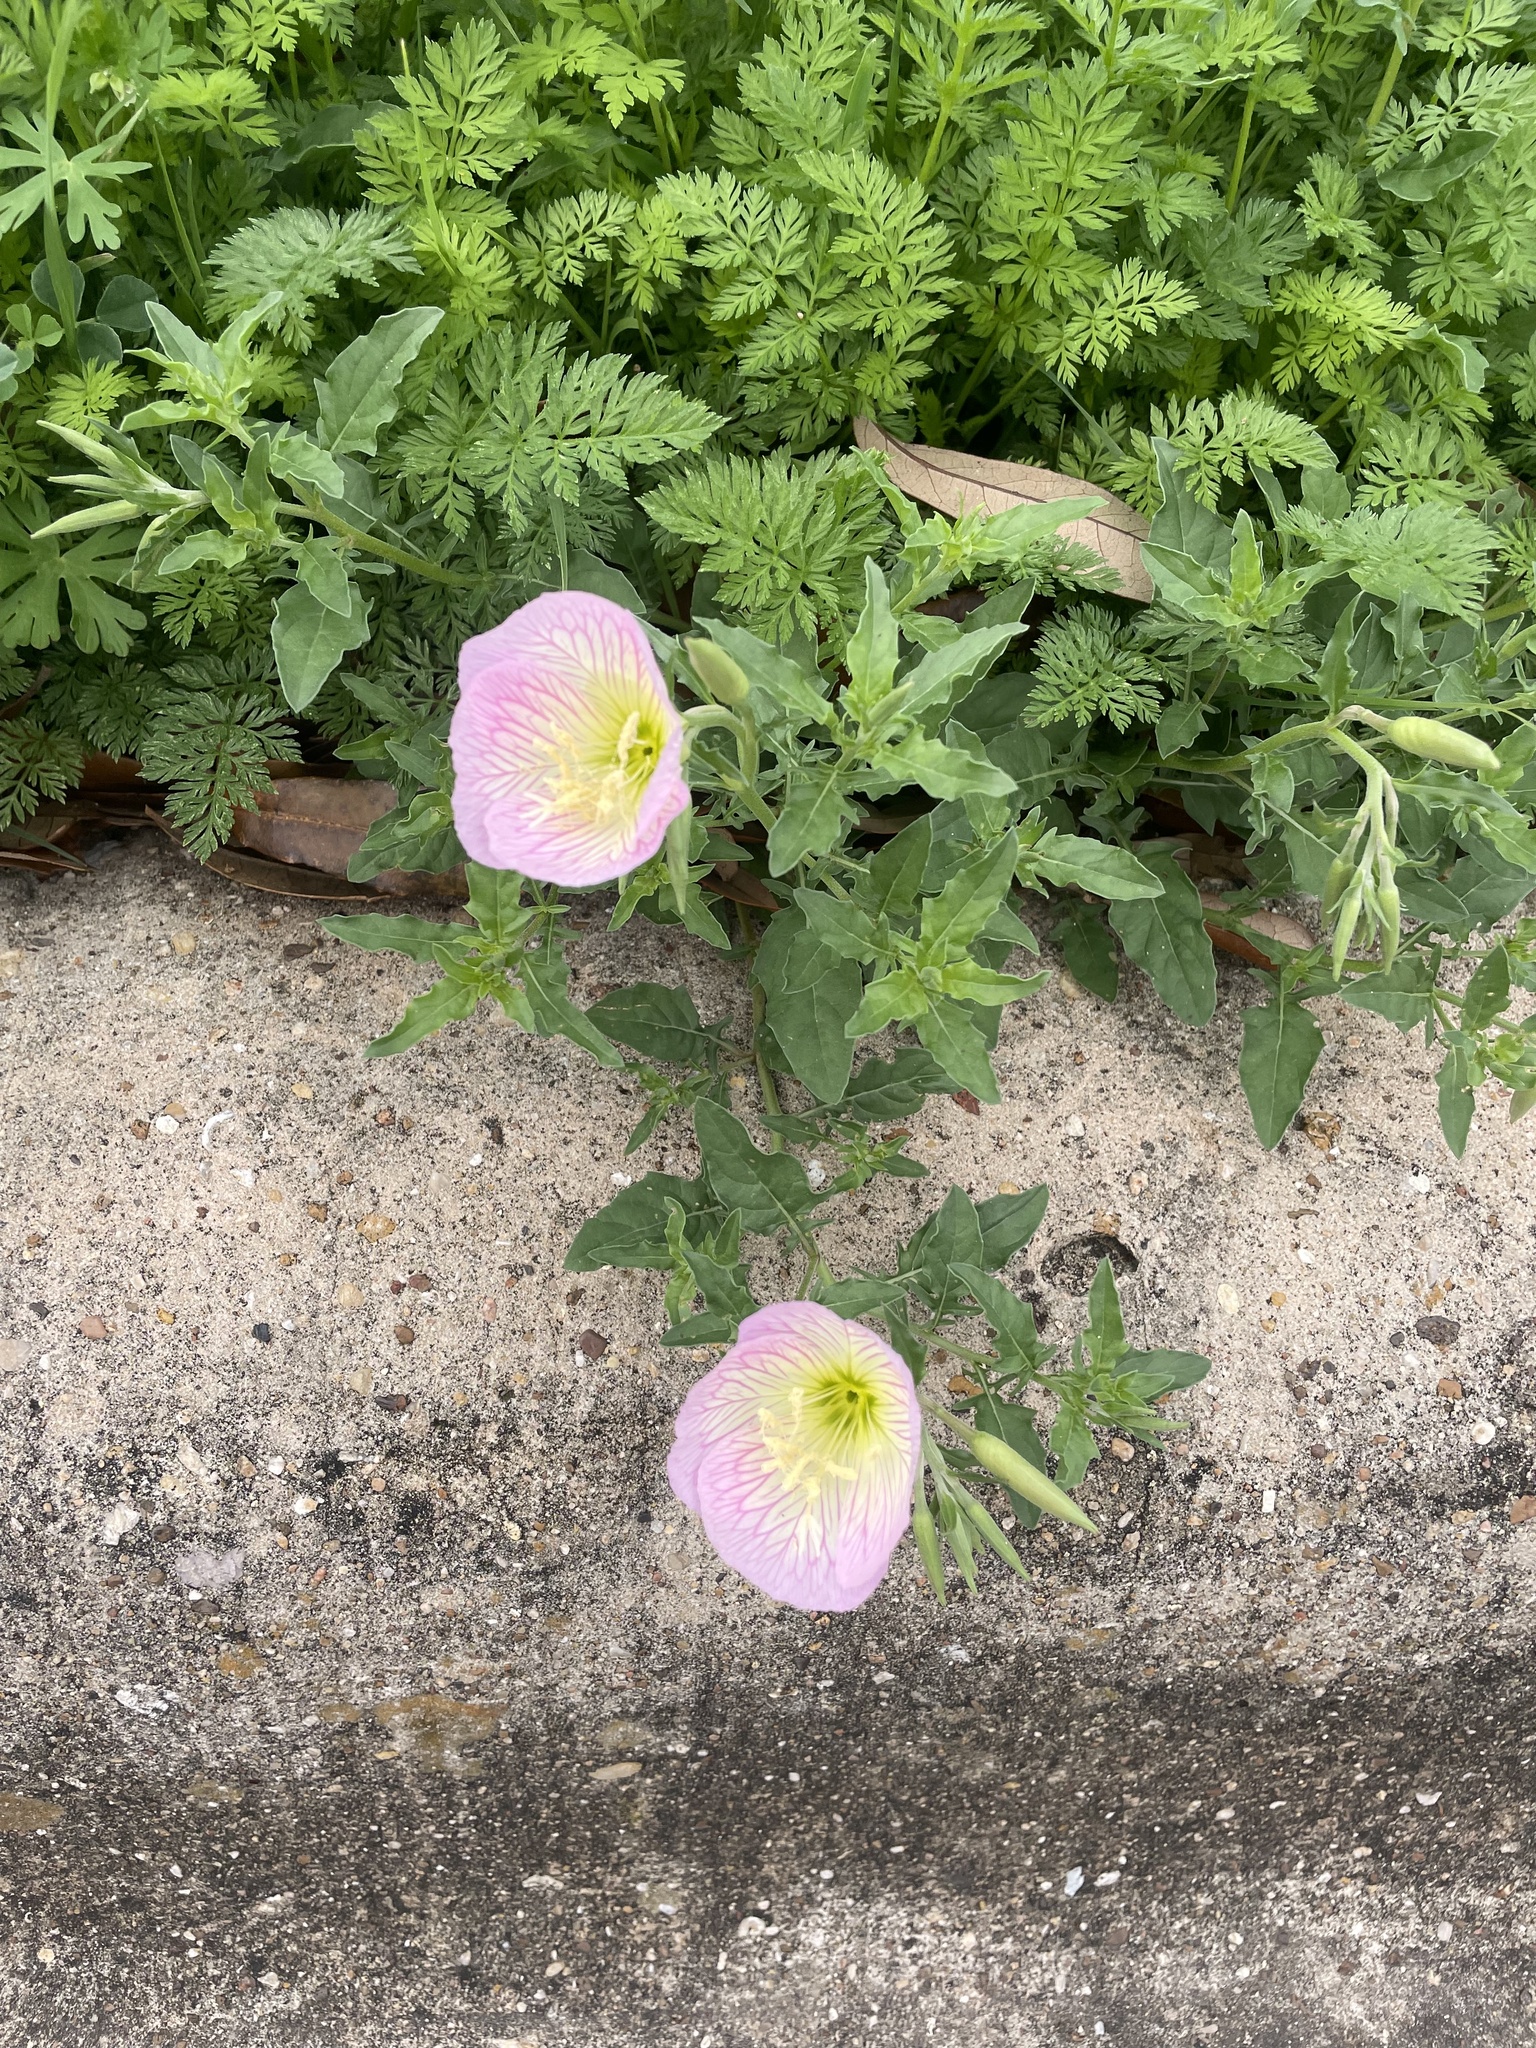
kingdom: Plantae
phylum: Tracheophyta
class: Magnoliopsida
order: Myrtales
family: Onagraceae
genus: Oenothera
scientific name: Oenothera speciosa
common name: White evening-primrose
